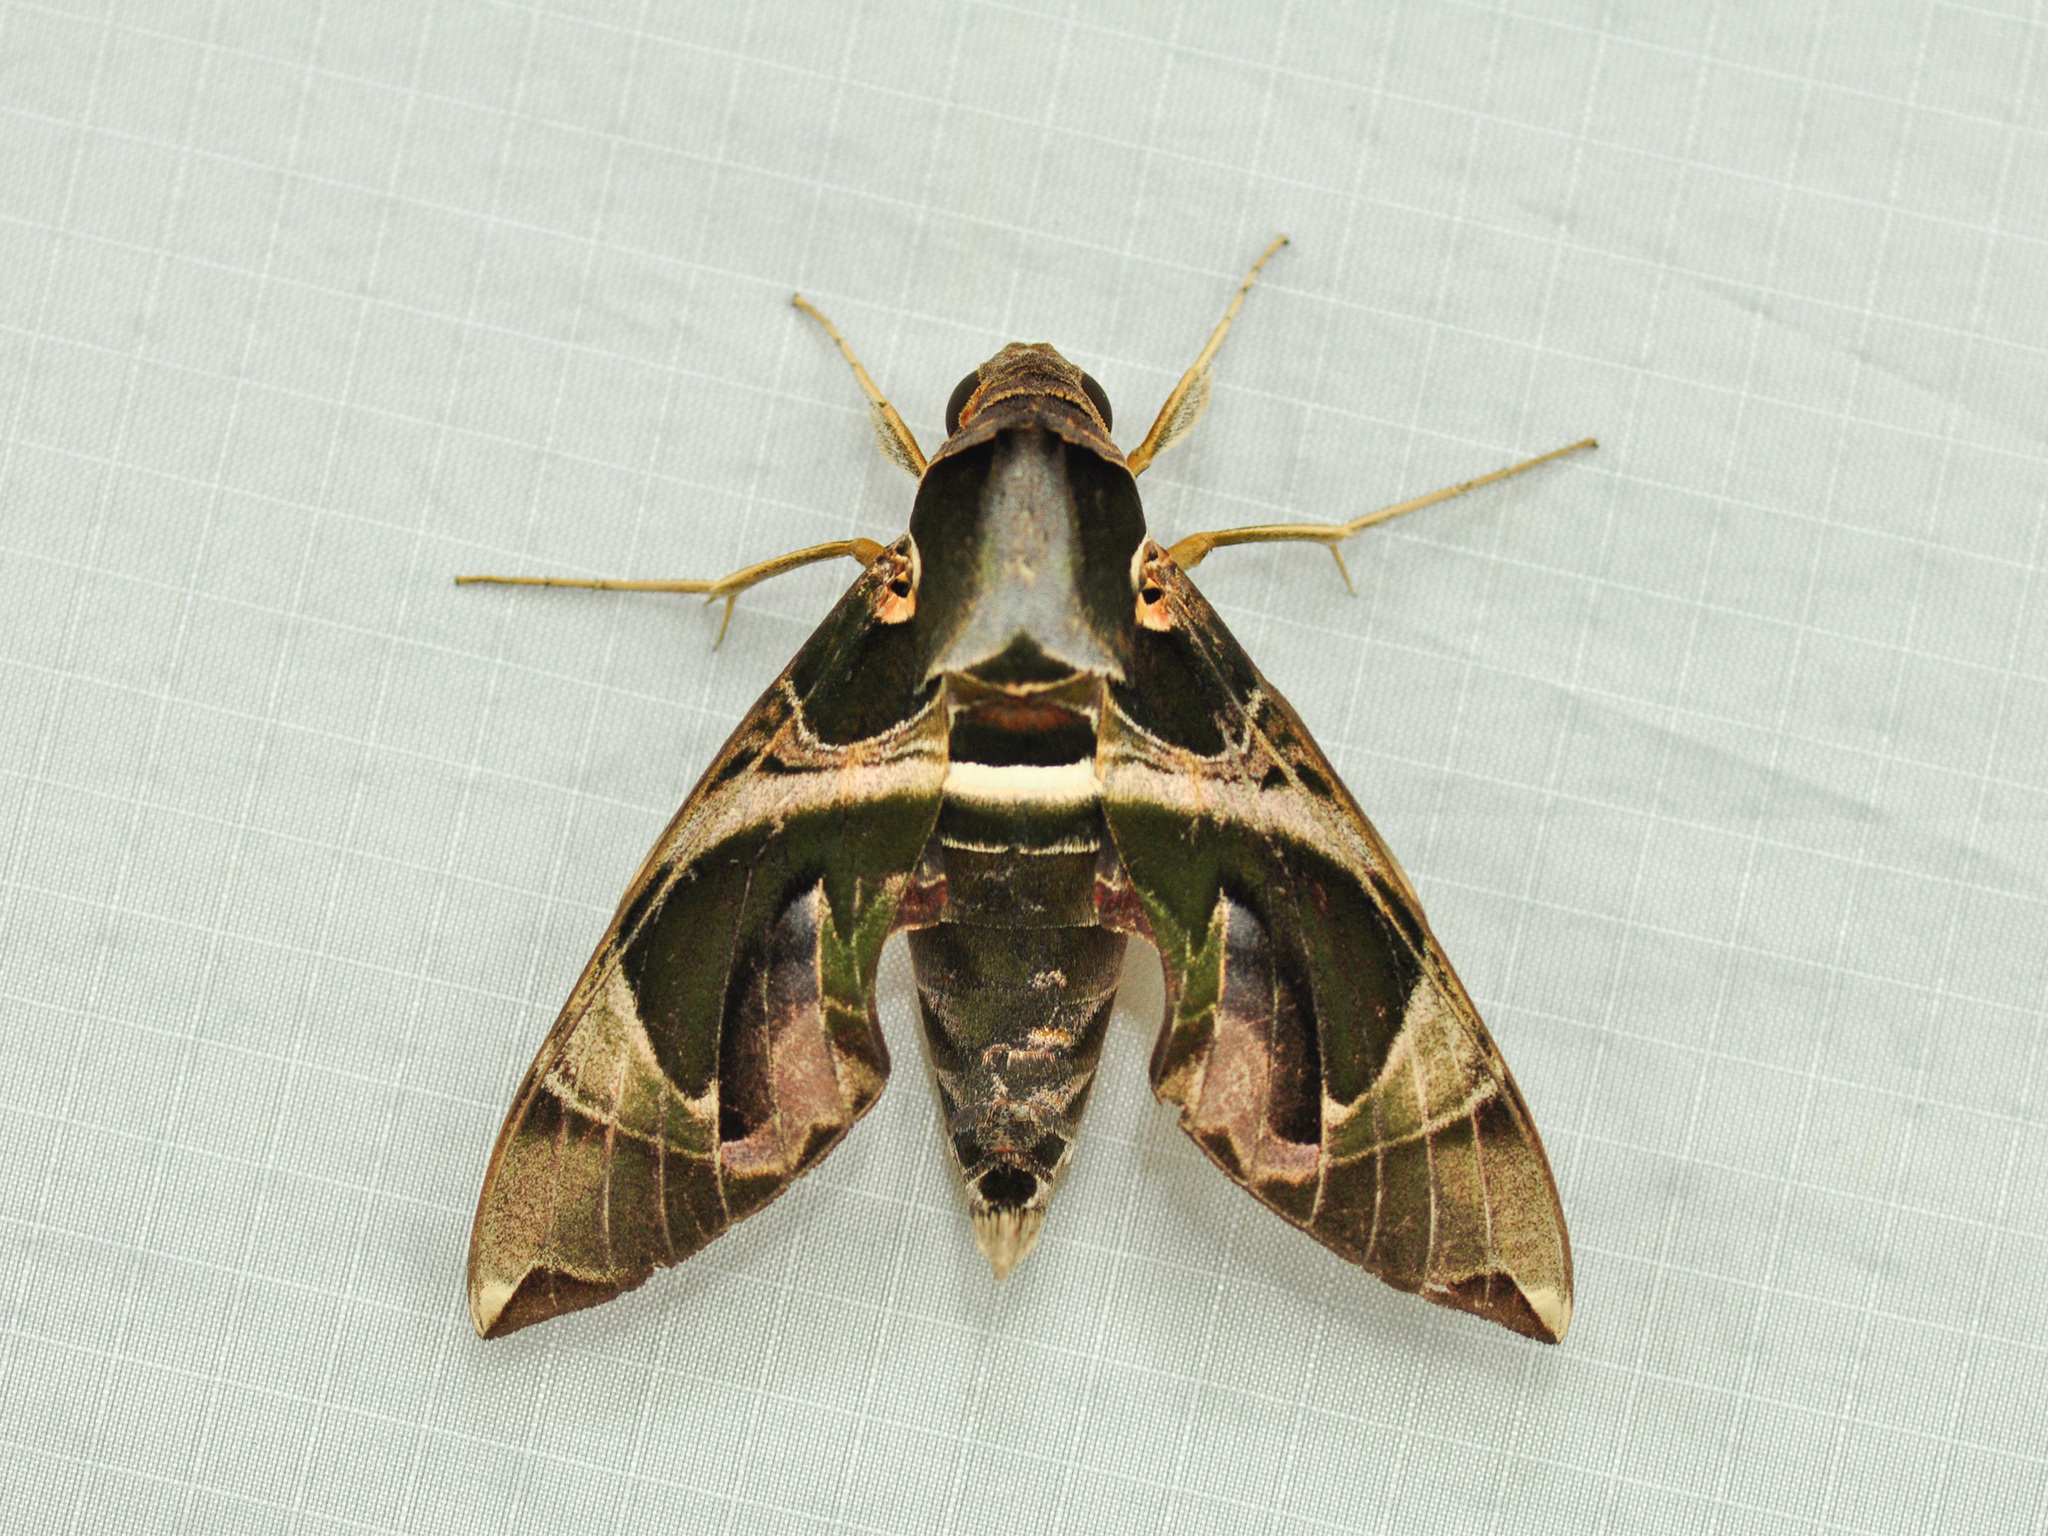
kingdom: Animalia
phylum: Arthropoda
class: Insecta
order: Lepidoptera
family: Sphingidae
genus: Daphnis
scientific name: Daphnis hypothous
